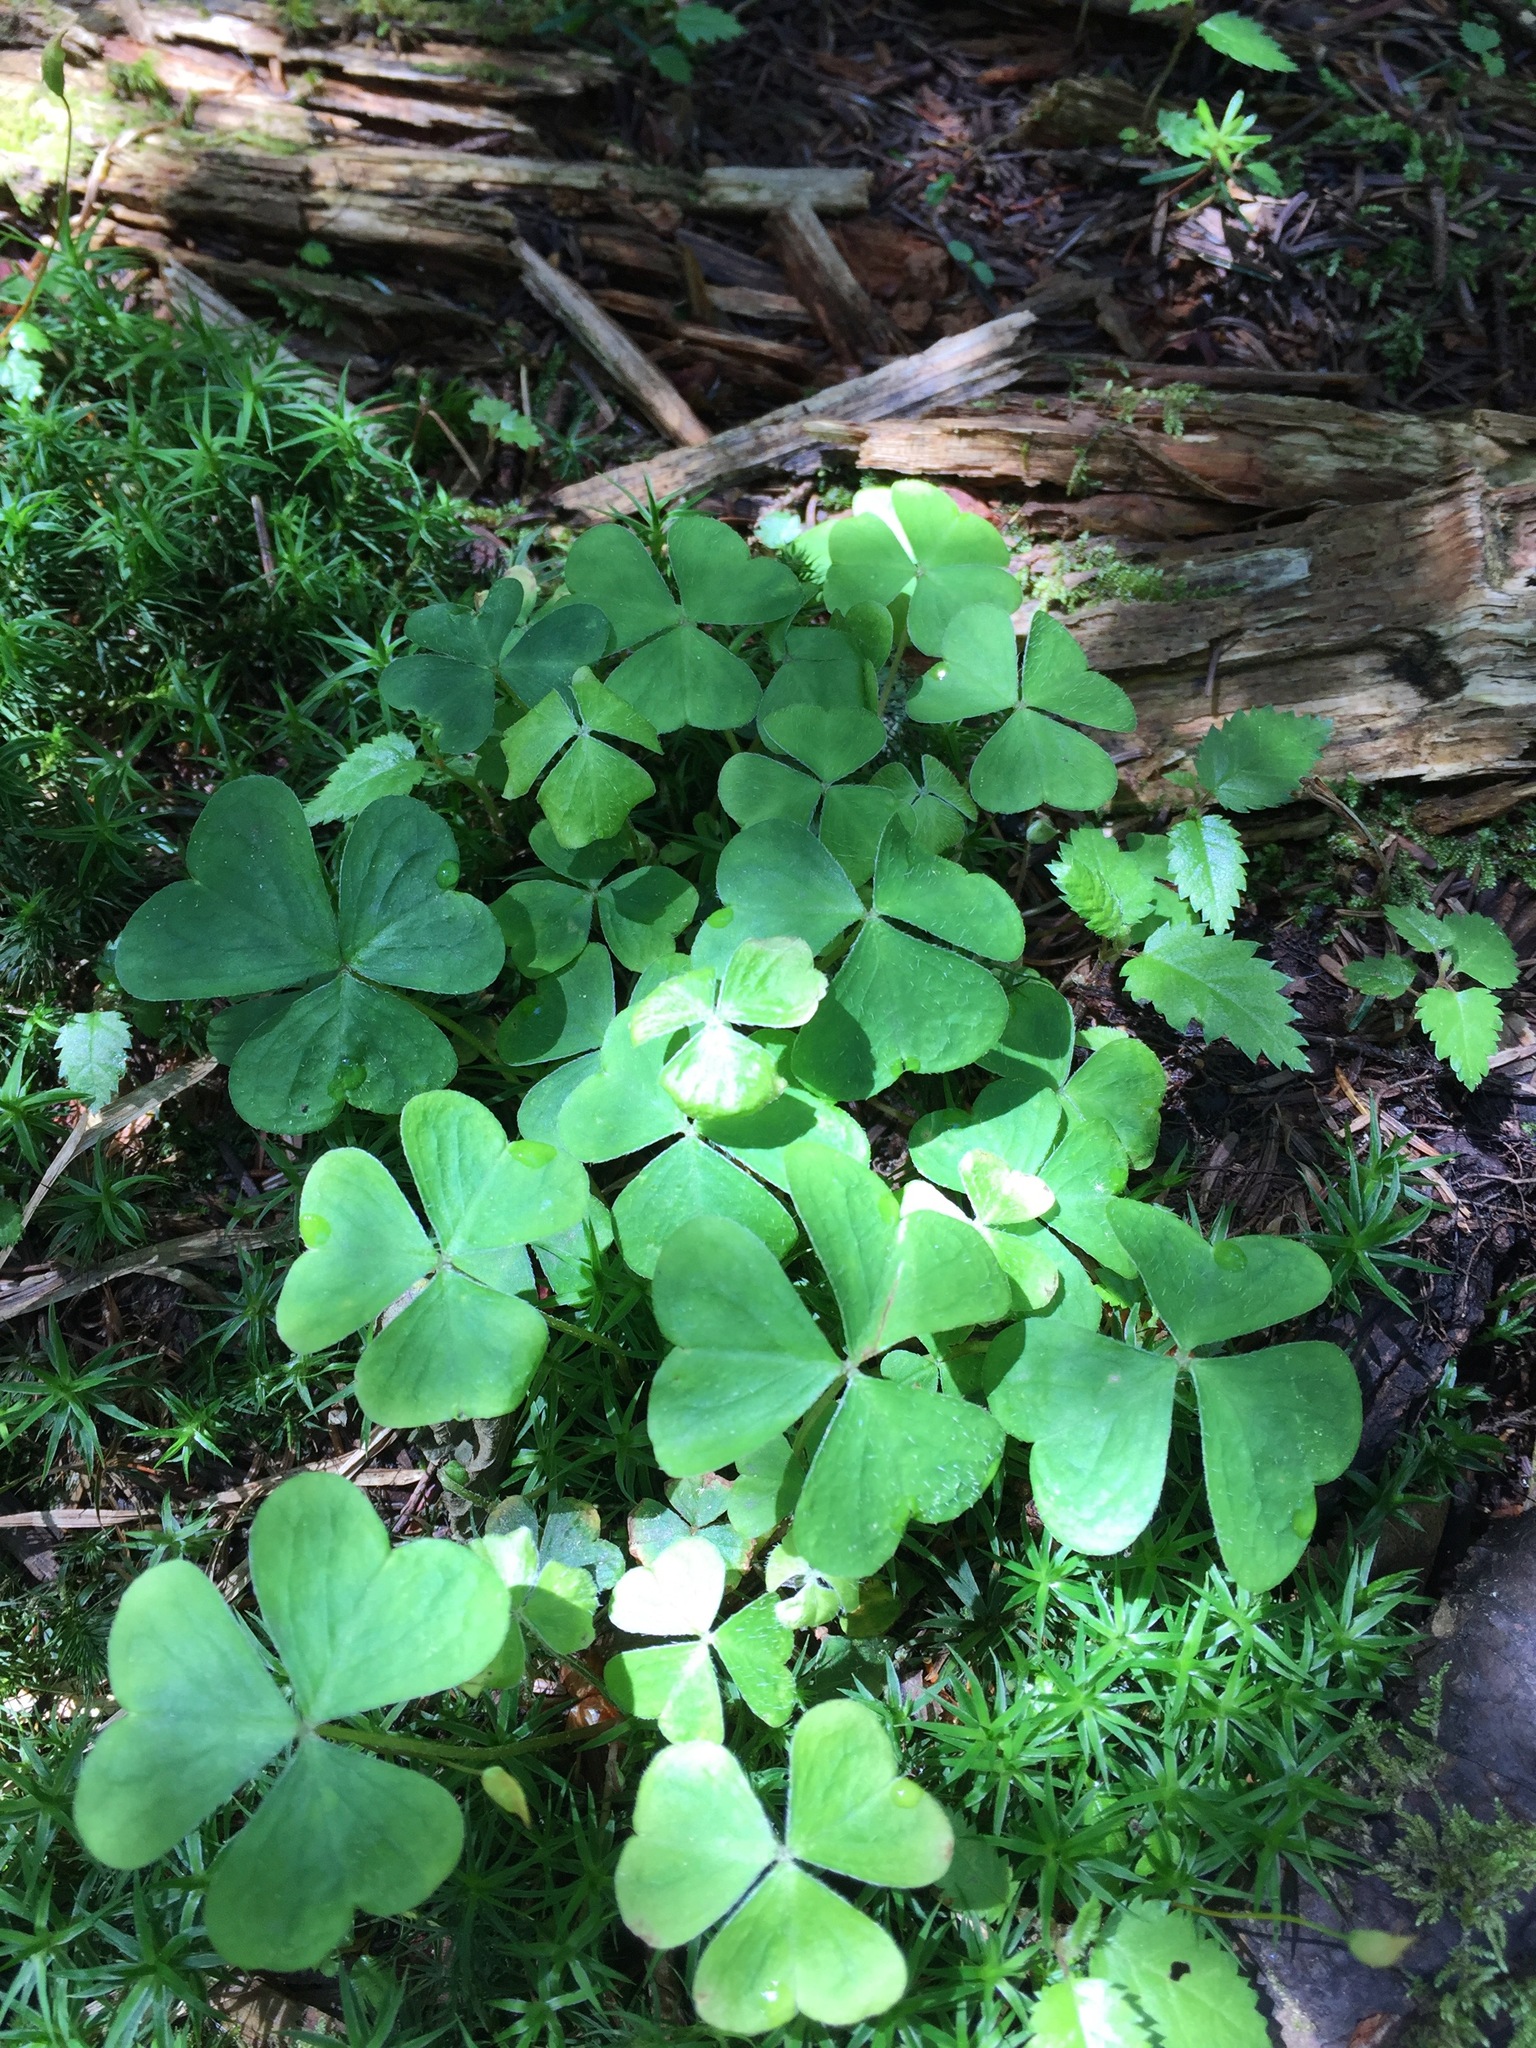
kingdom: Plantae
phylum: Tracheophyta
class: Magnoliopsida
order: Oxalidales
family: Oxalidaceae
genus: Oxalis
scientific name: Oxalis montana
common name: American wood-sorrel
